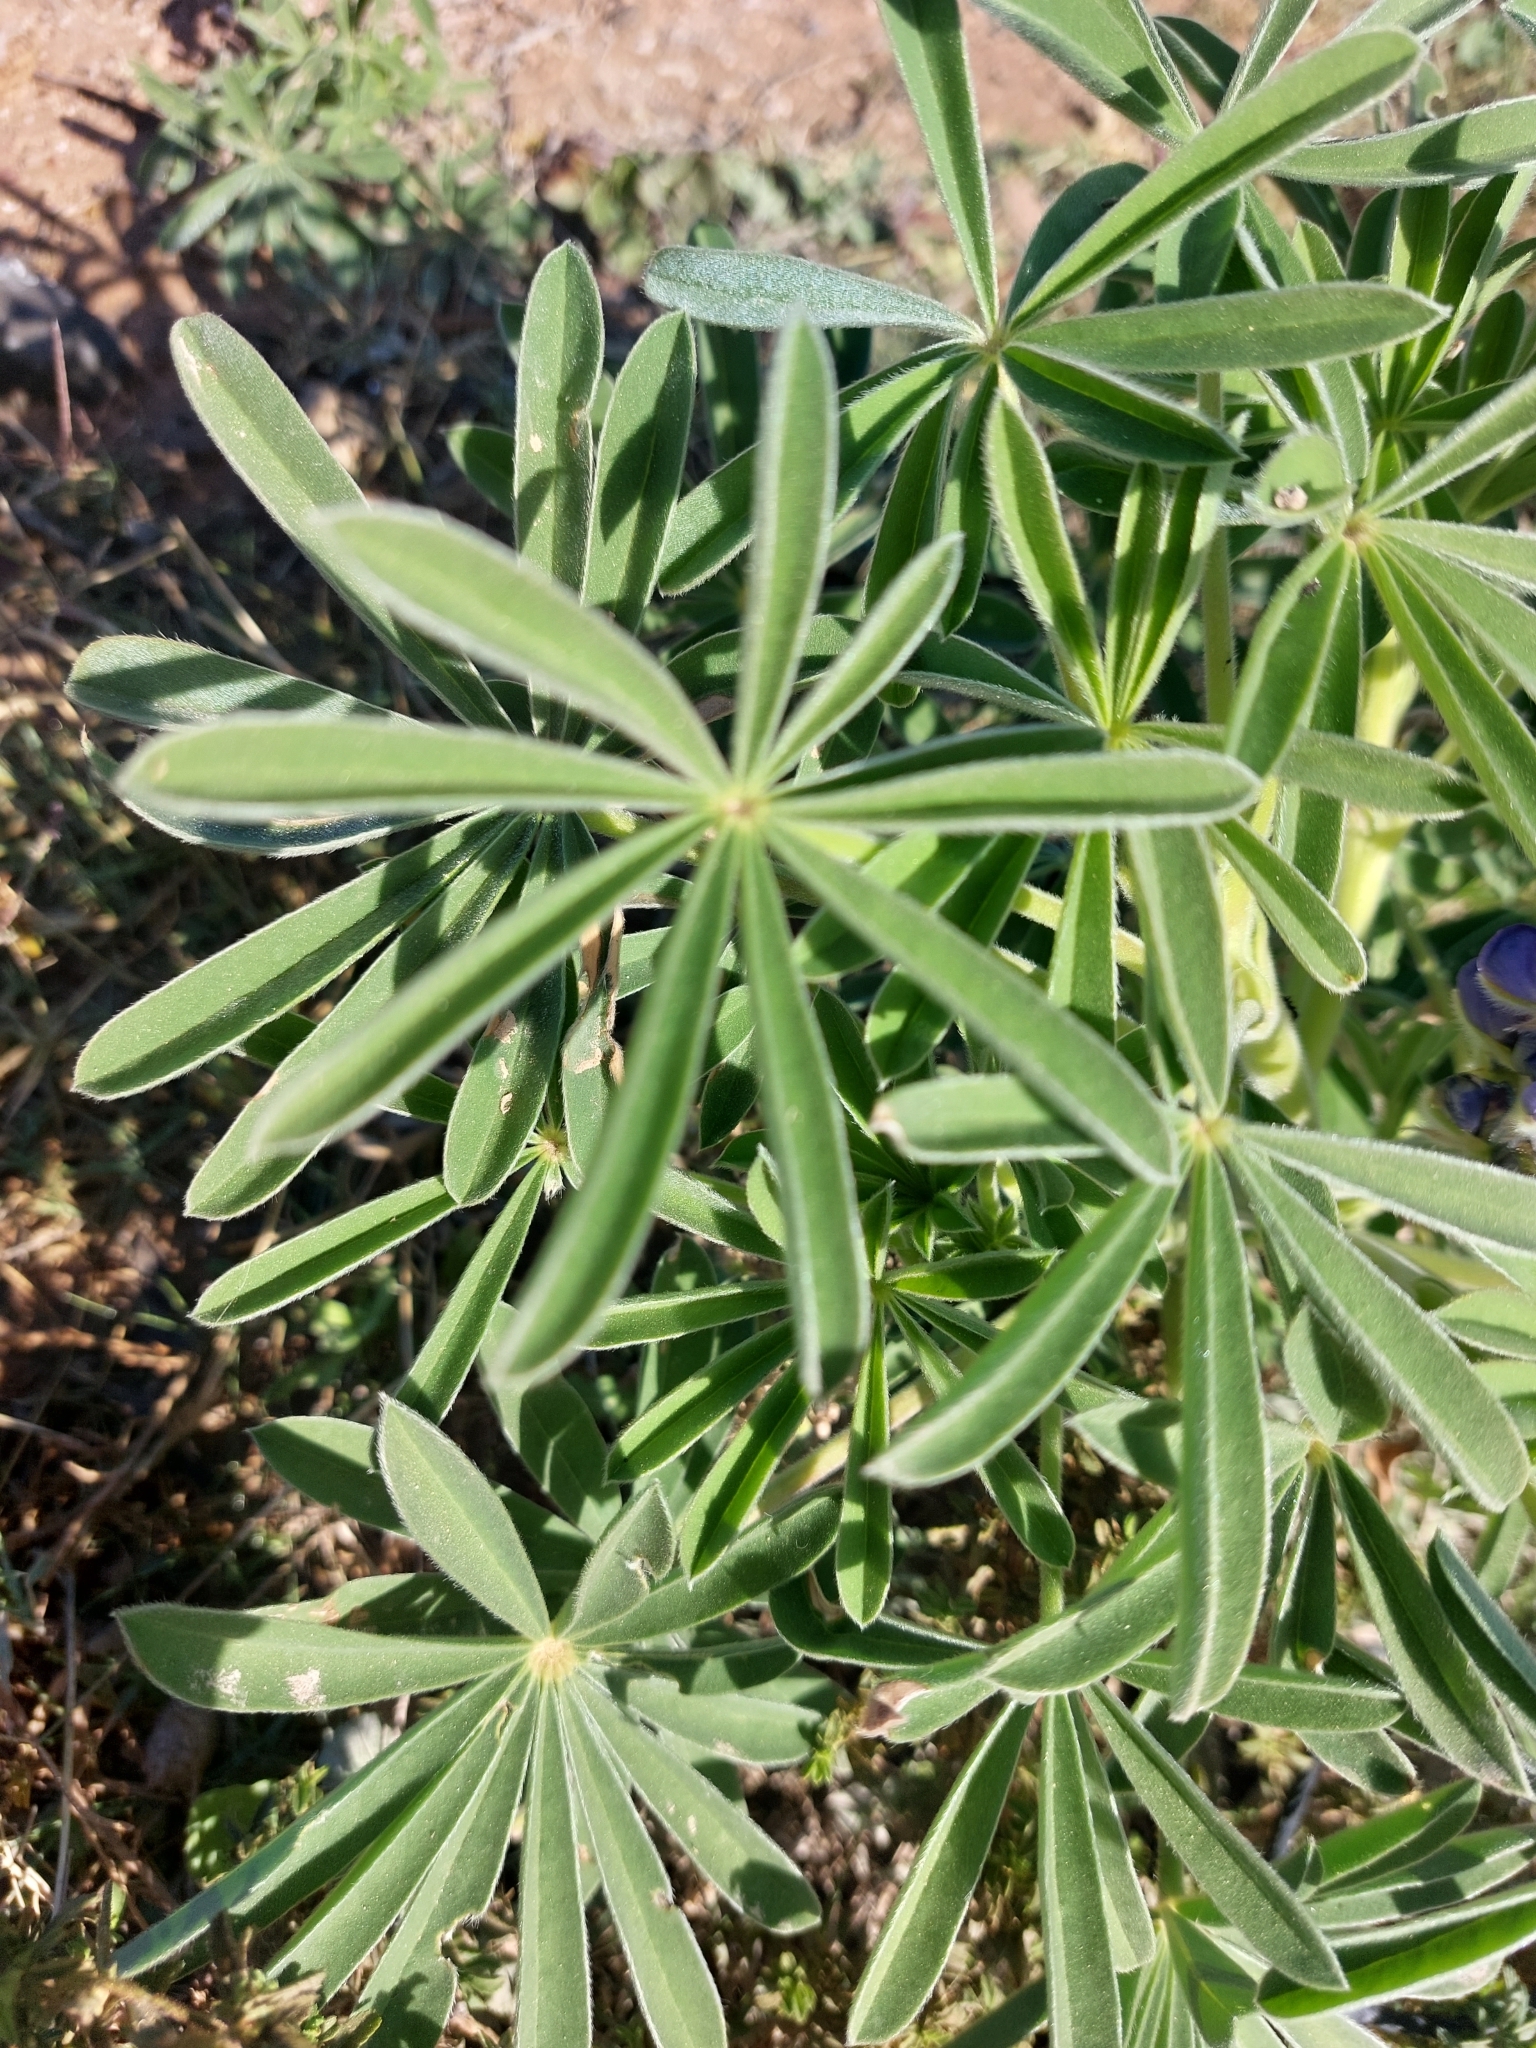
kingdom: Plantae
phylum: Tracheophyta
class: Magnoliopsida
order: Fabales
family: Fabaceae
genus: Lupinus
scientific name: Lupinus cosentinii
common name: Hairy blue lupin
